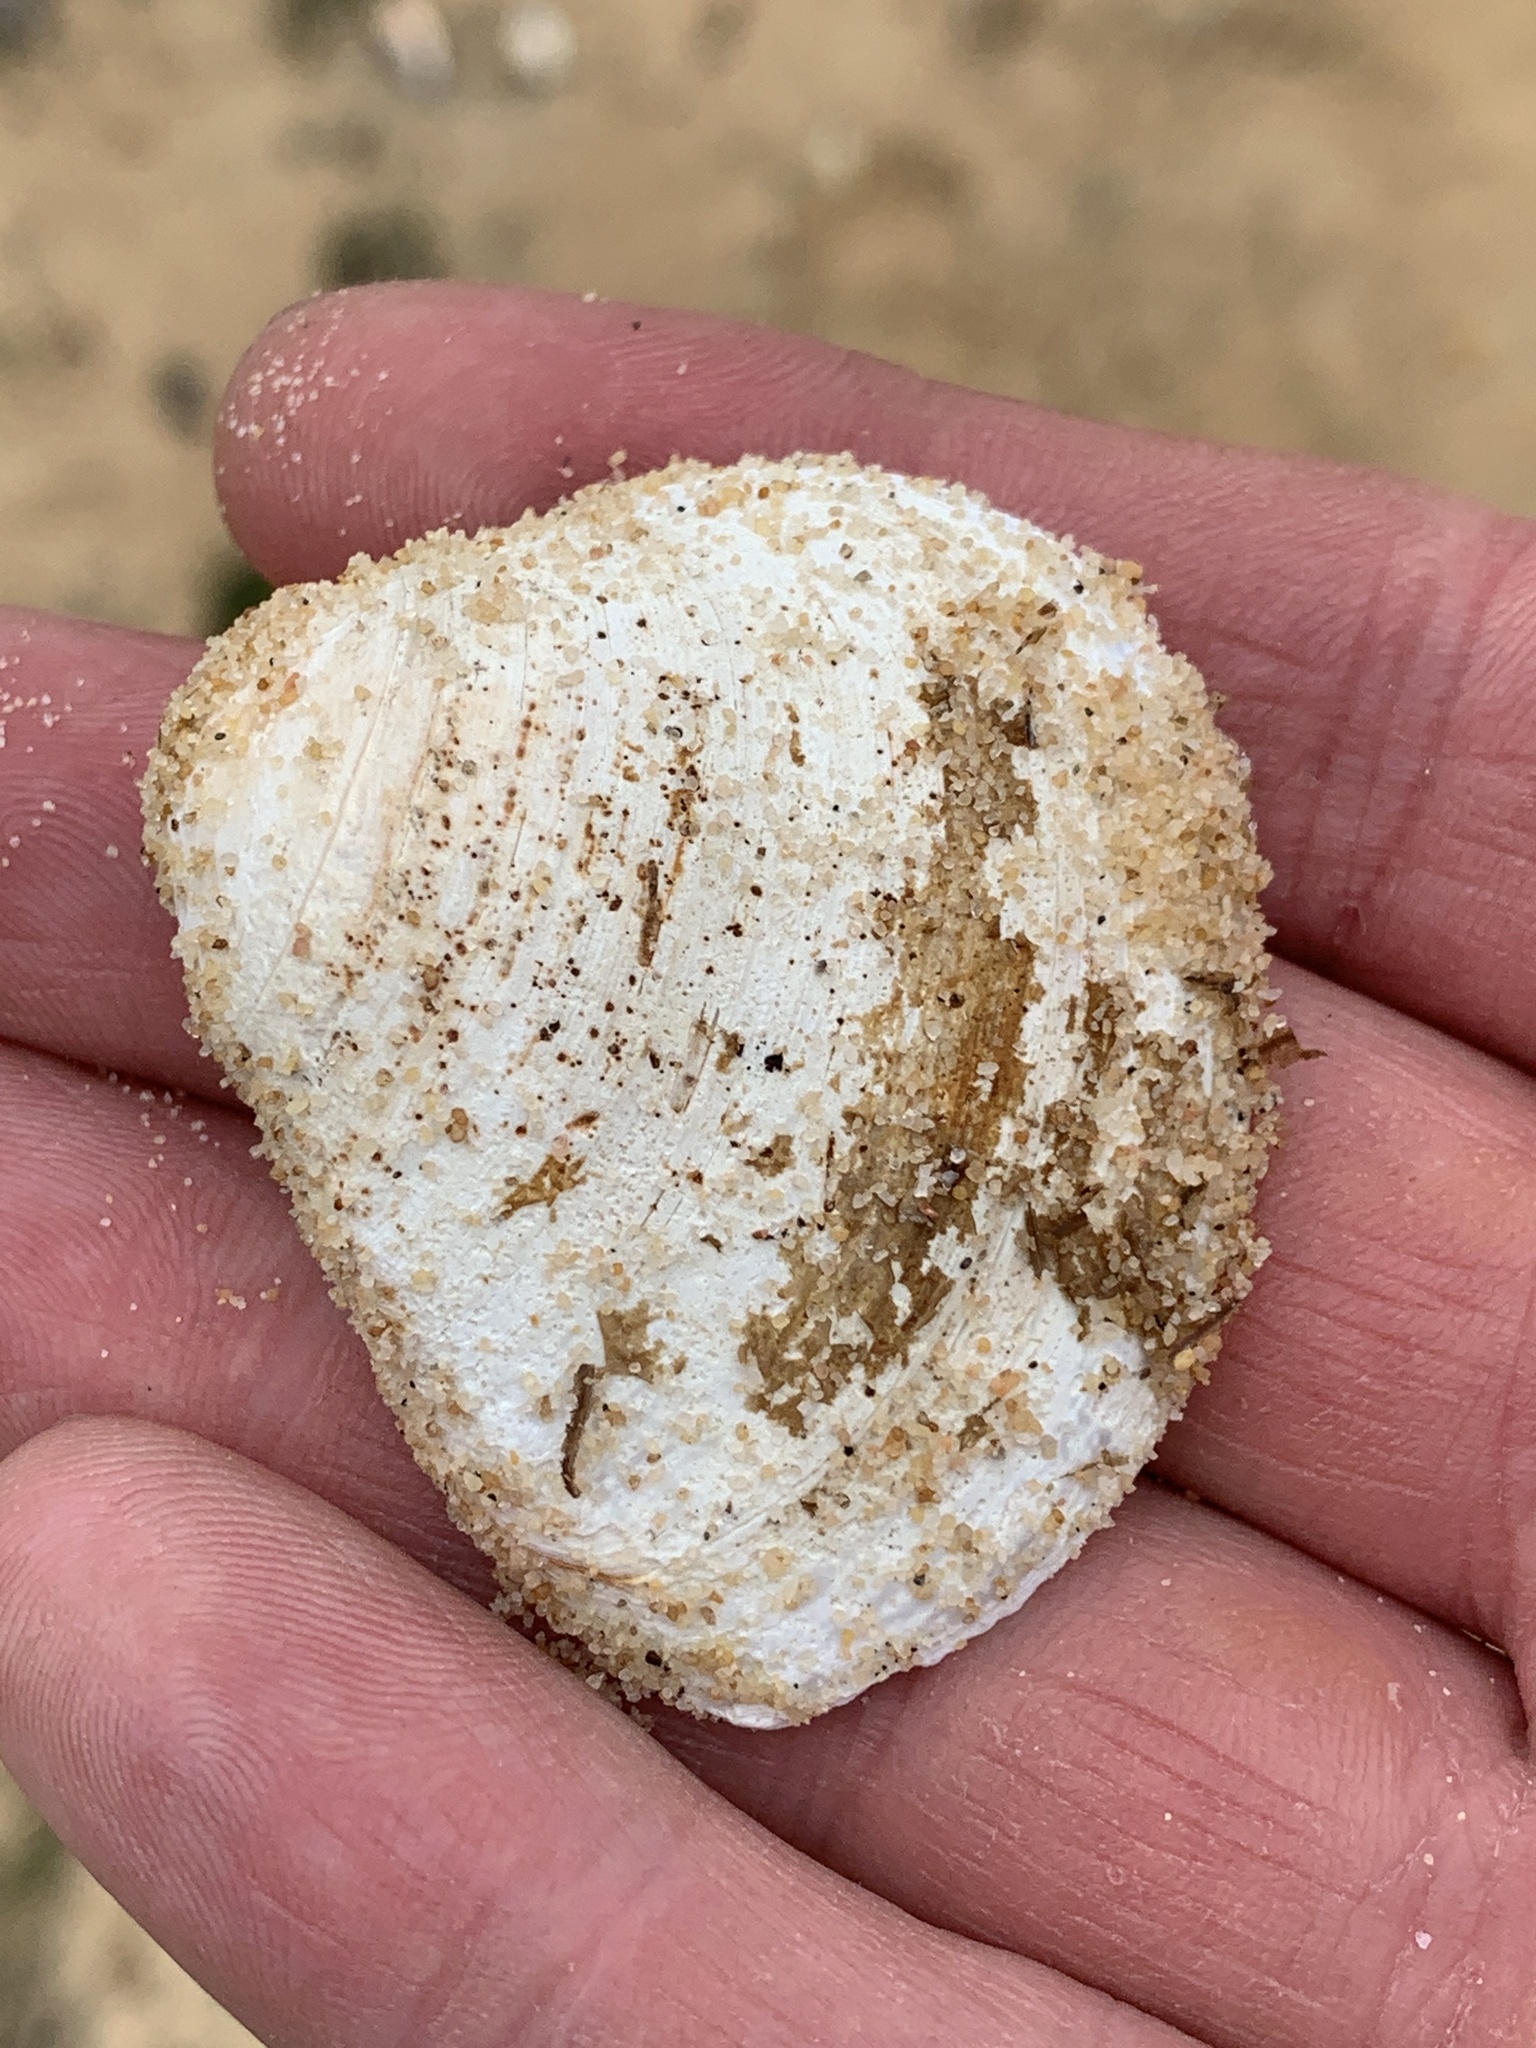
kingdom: Animalia
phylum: Mollusca
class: Bivalvia
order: Venerida
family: Mactridae
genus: Rangia
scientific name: Rangia cuneata
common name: Atlantic rangia
